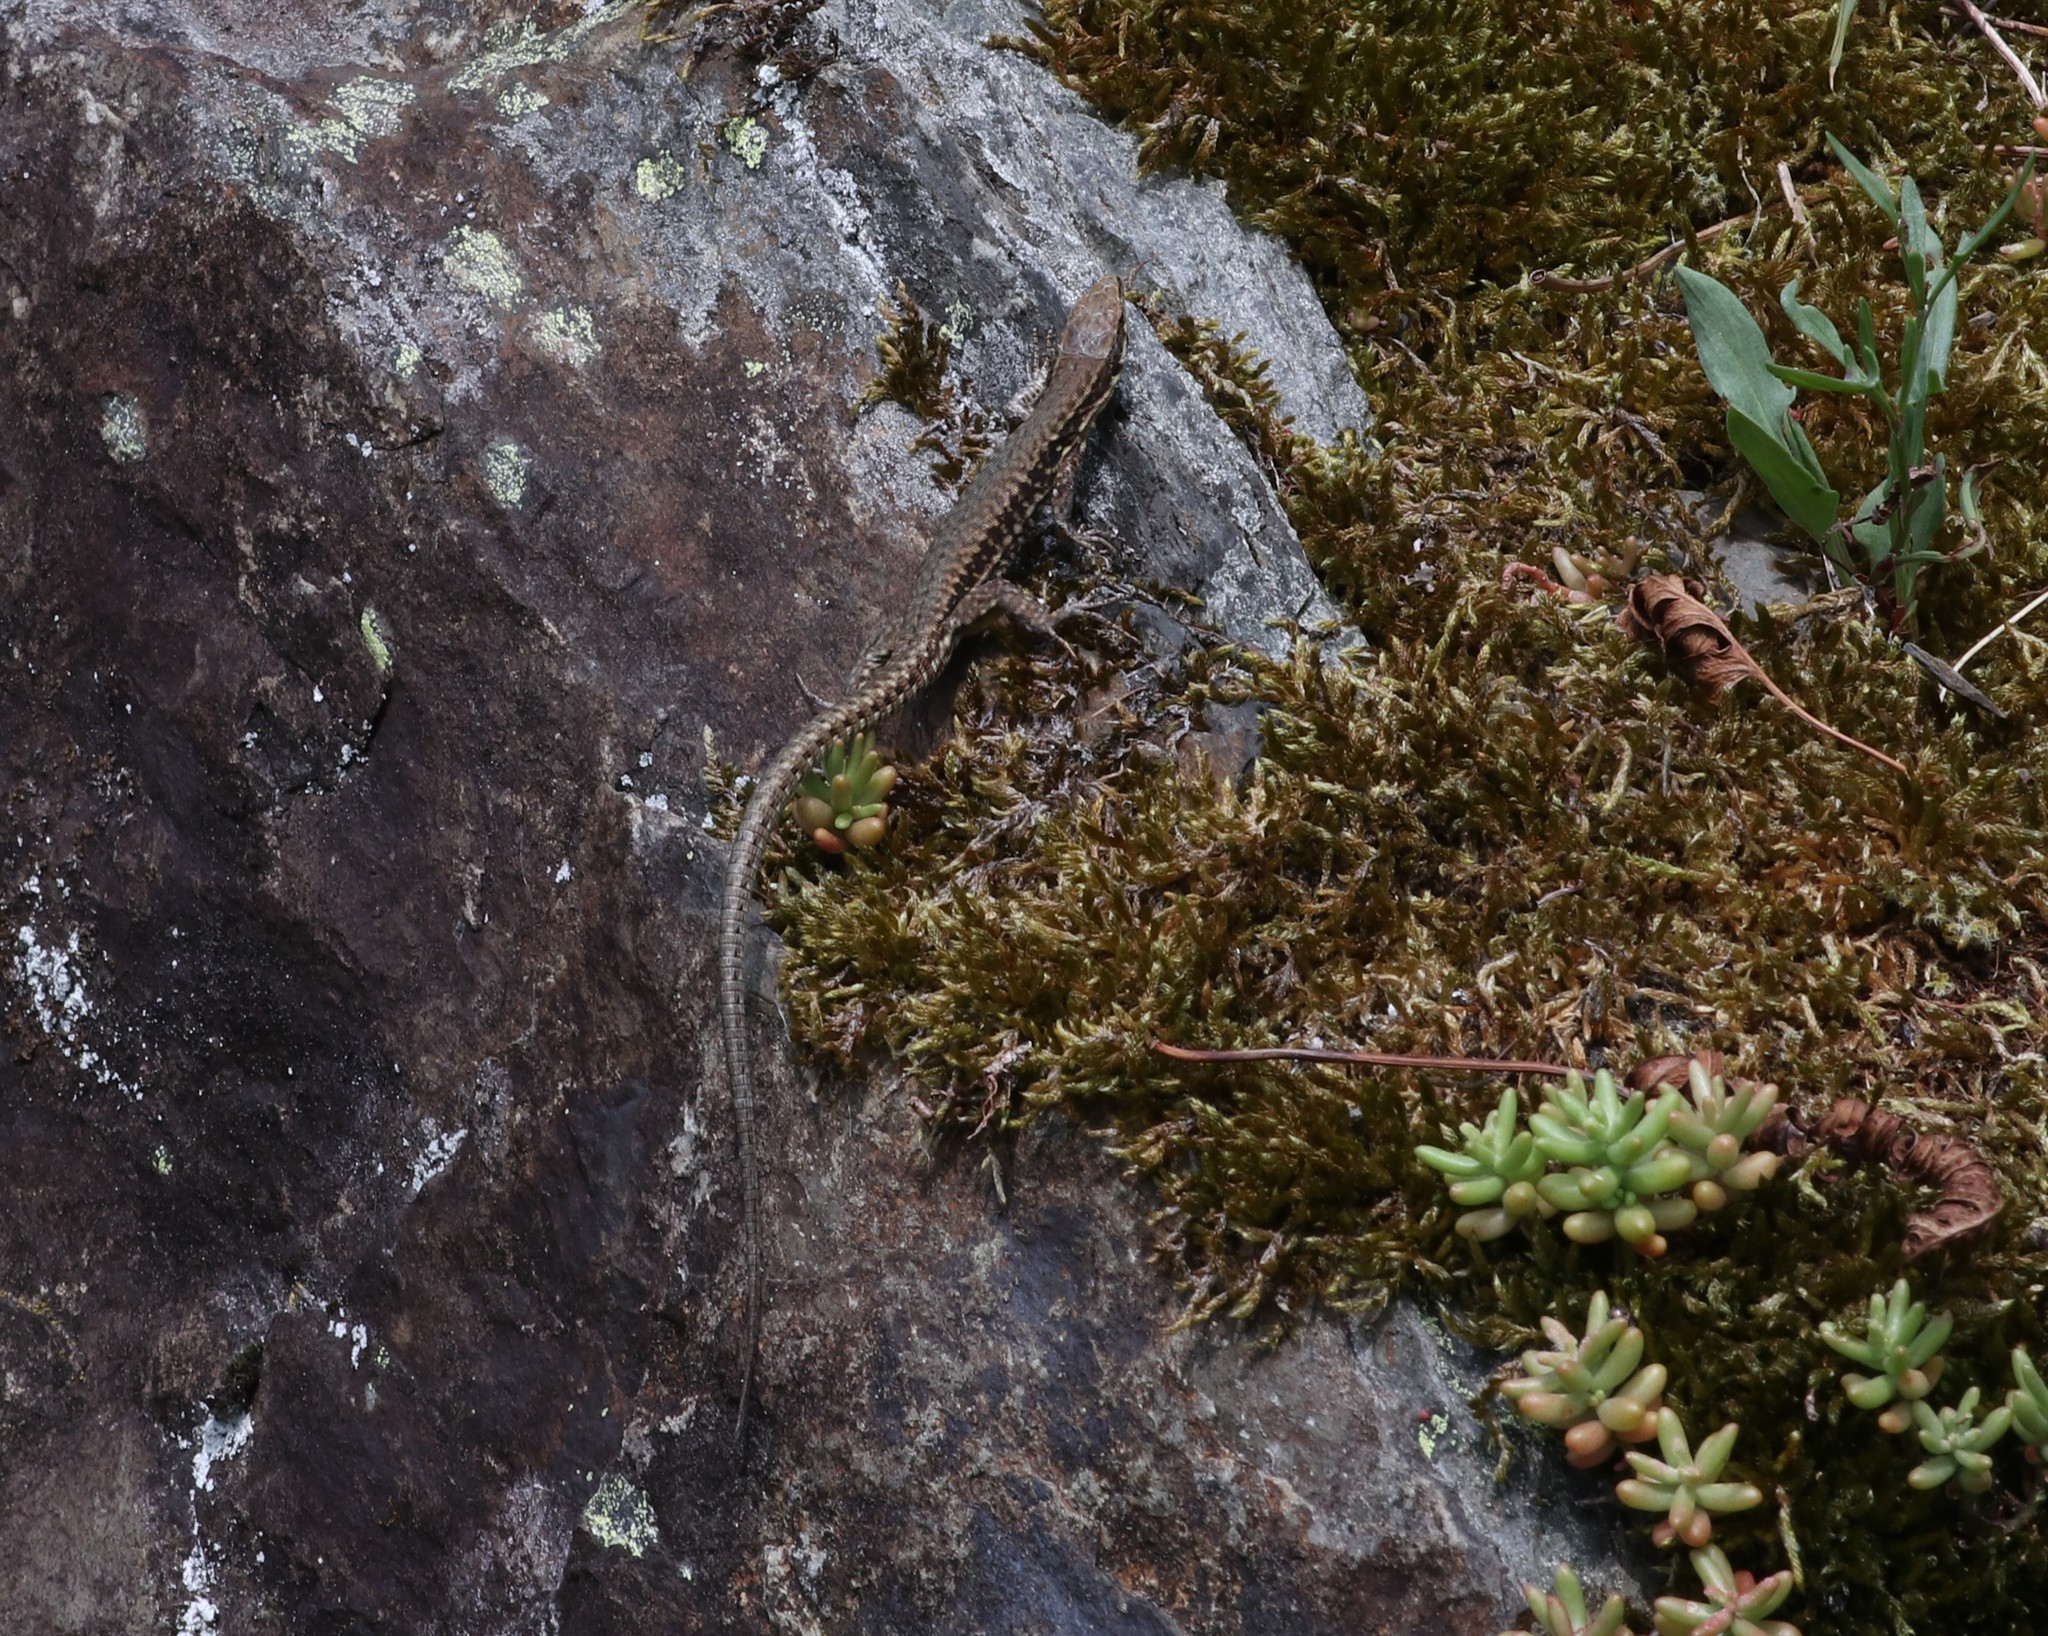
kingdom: Animalia
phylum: Chordata
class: Squamata
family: Lacertidae
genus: Podarcis
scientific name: Podarcis muralis
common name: Common wall lizard
